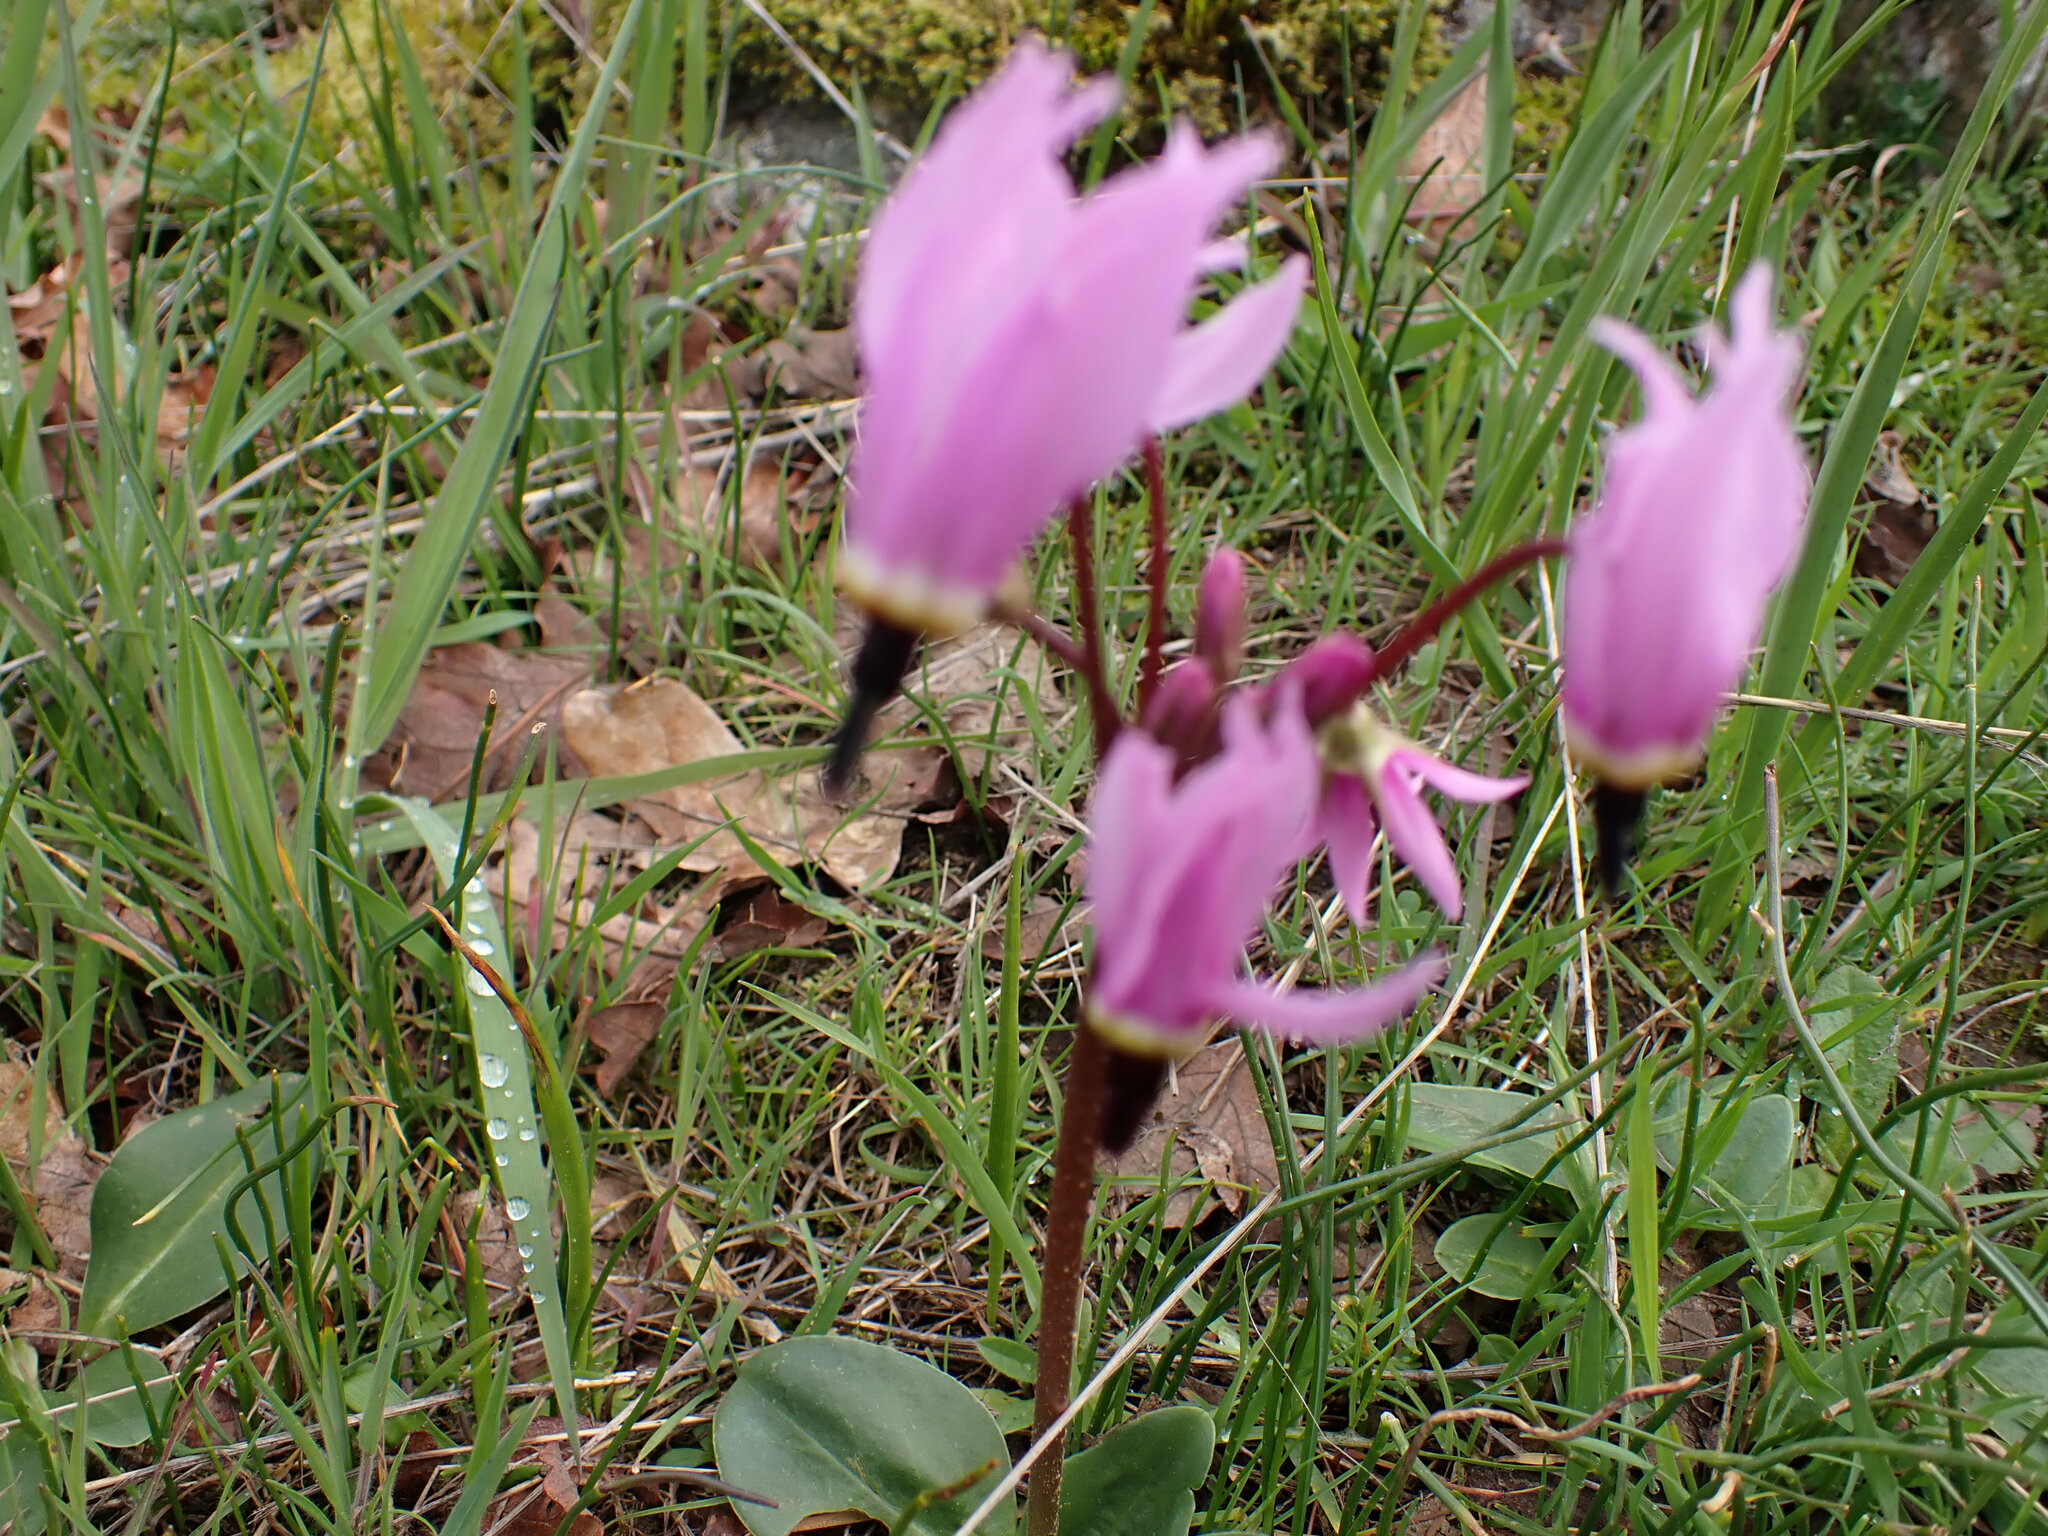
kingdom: Plantae
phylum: Tracheophyta
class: Magnoliopsida
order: Ericales
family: Primulaceae
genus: Dodecatheon
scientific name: Dodecatheon hendersonii
